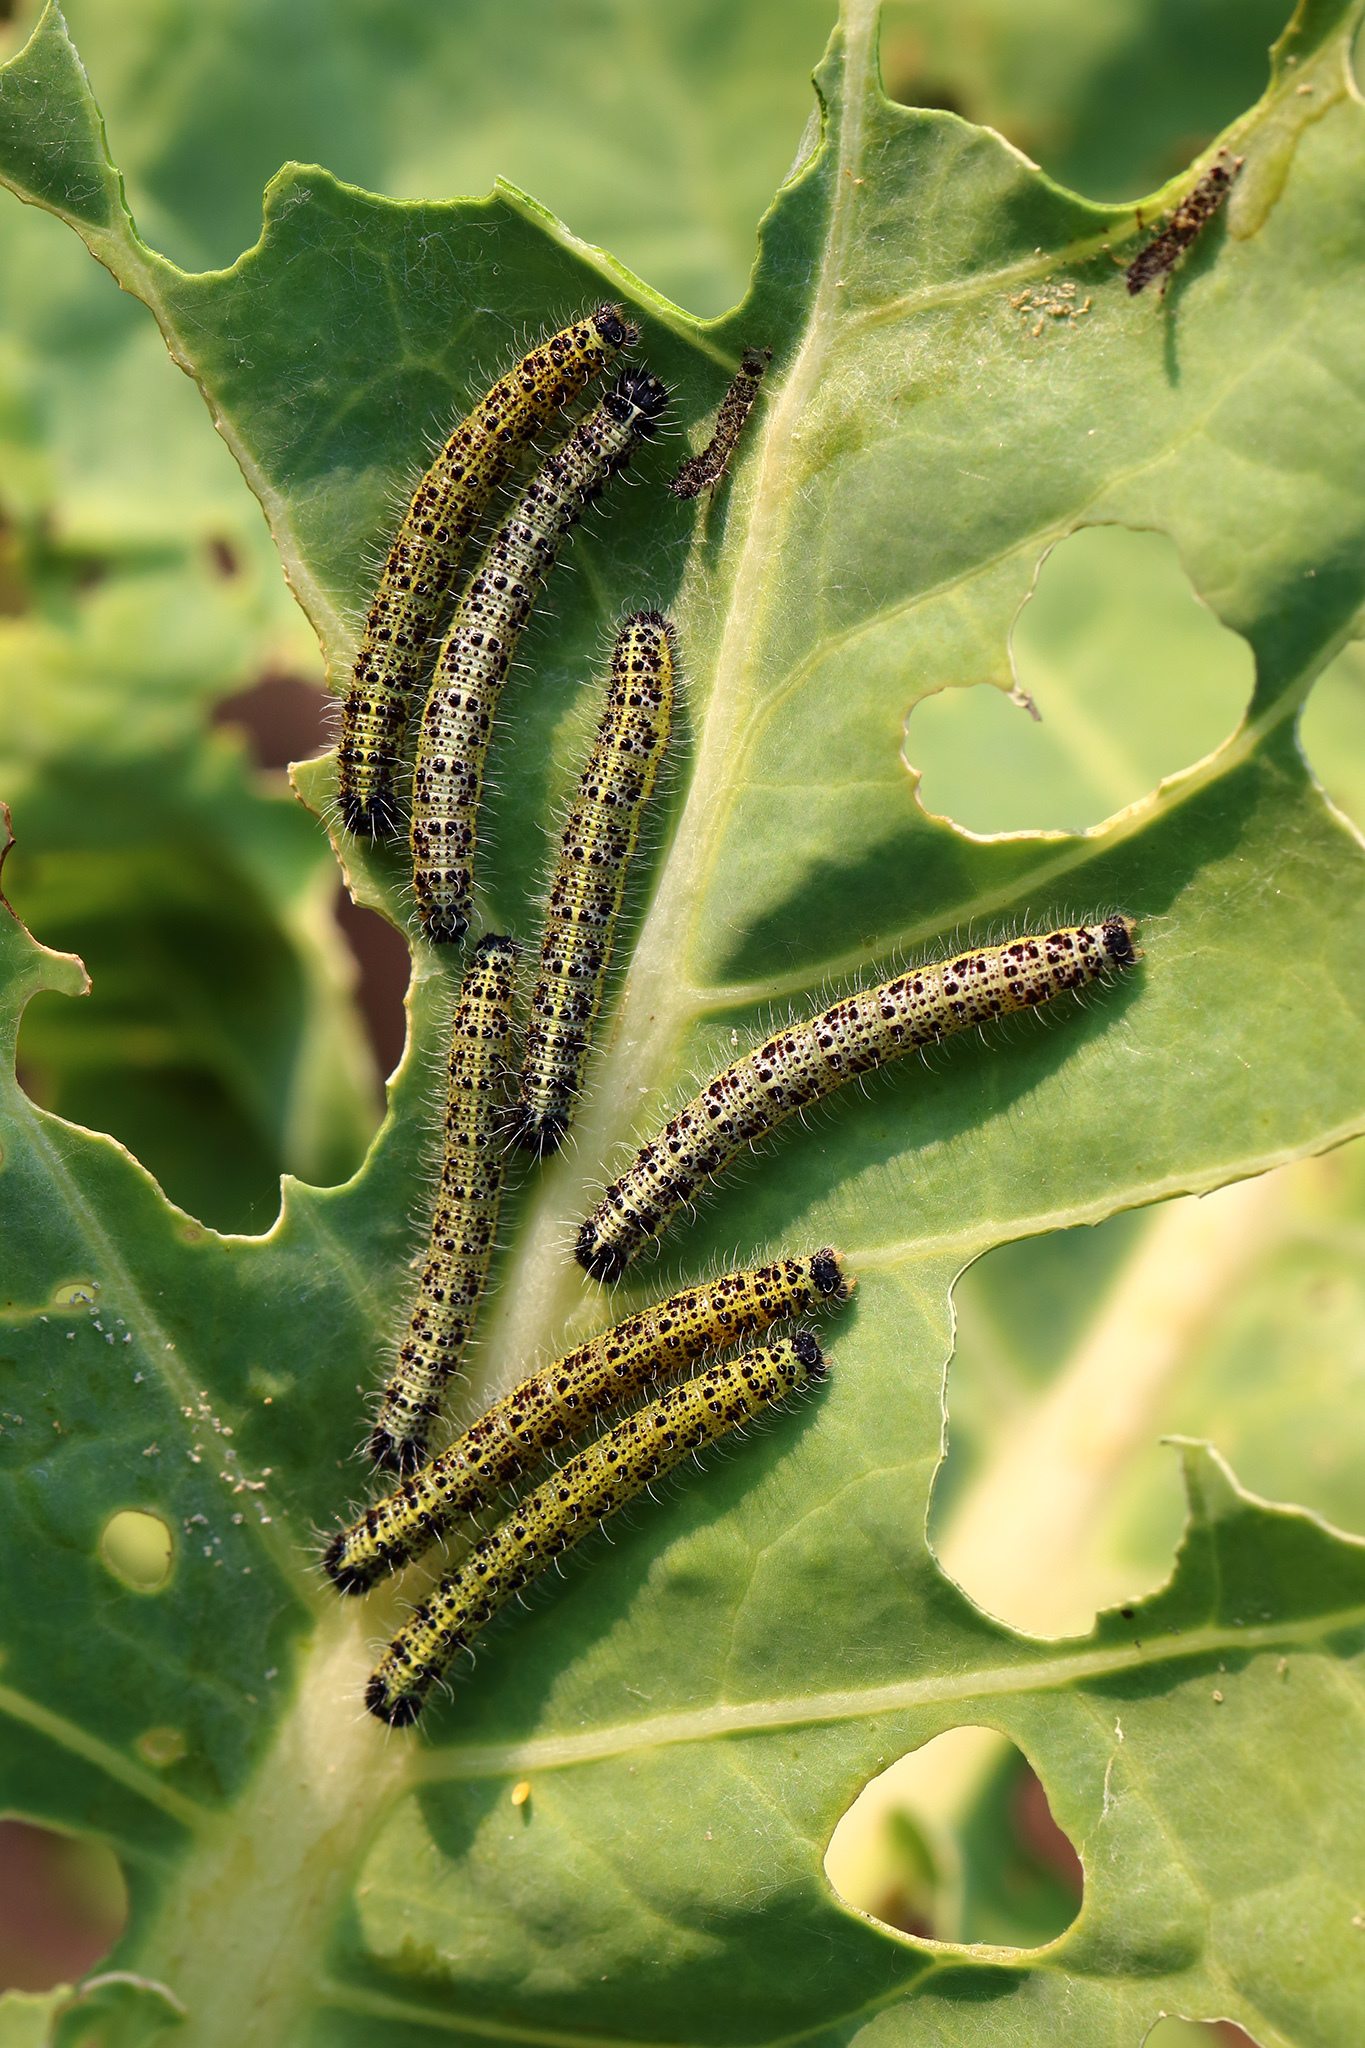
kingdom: Animalia
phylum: Arthropoda
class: Insecta
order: Lepidoptera
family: Pieridae
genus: Pieris
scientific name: Pieris brassicae
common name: Large white
